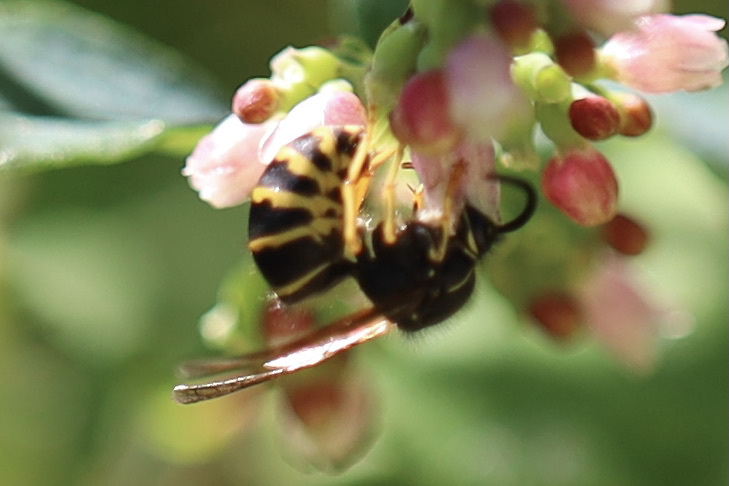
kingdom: Animalia
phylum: Arthropoda
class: Insecta
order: Hymenoptera
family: Vespidae
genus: Dolichovespula
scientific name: Dolichovespula arenaria
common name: Aerial yellowjacket
